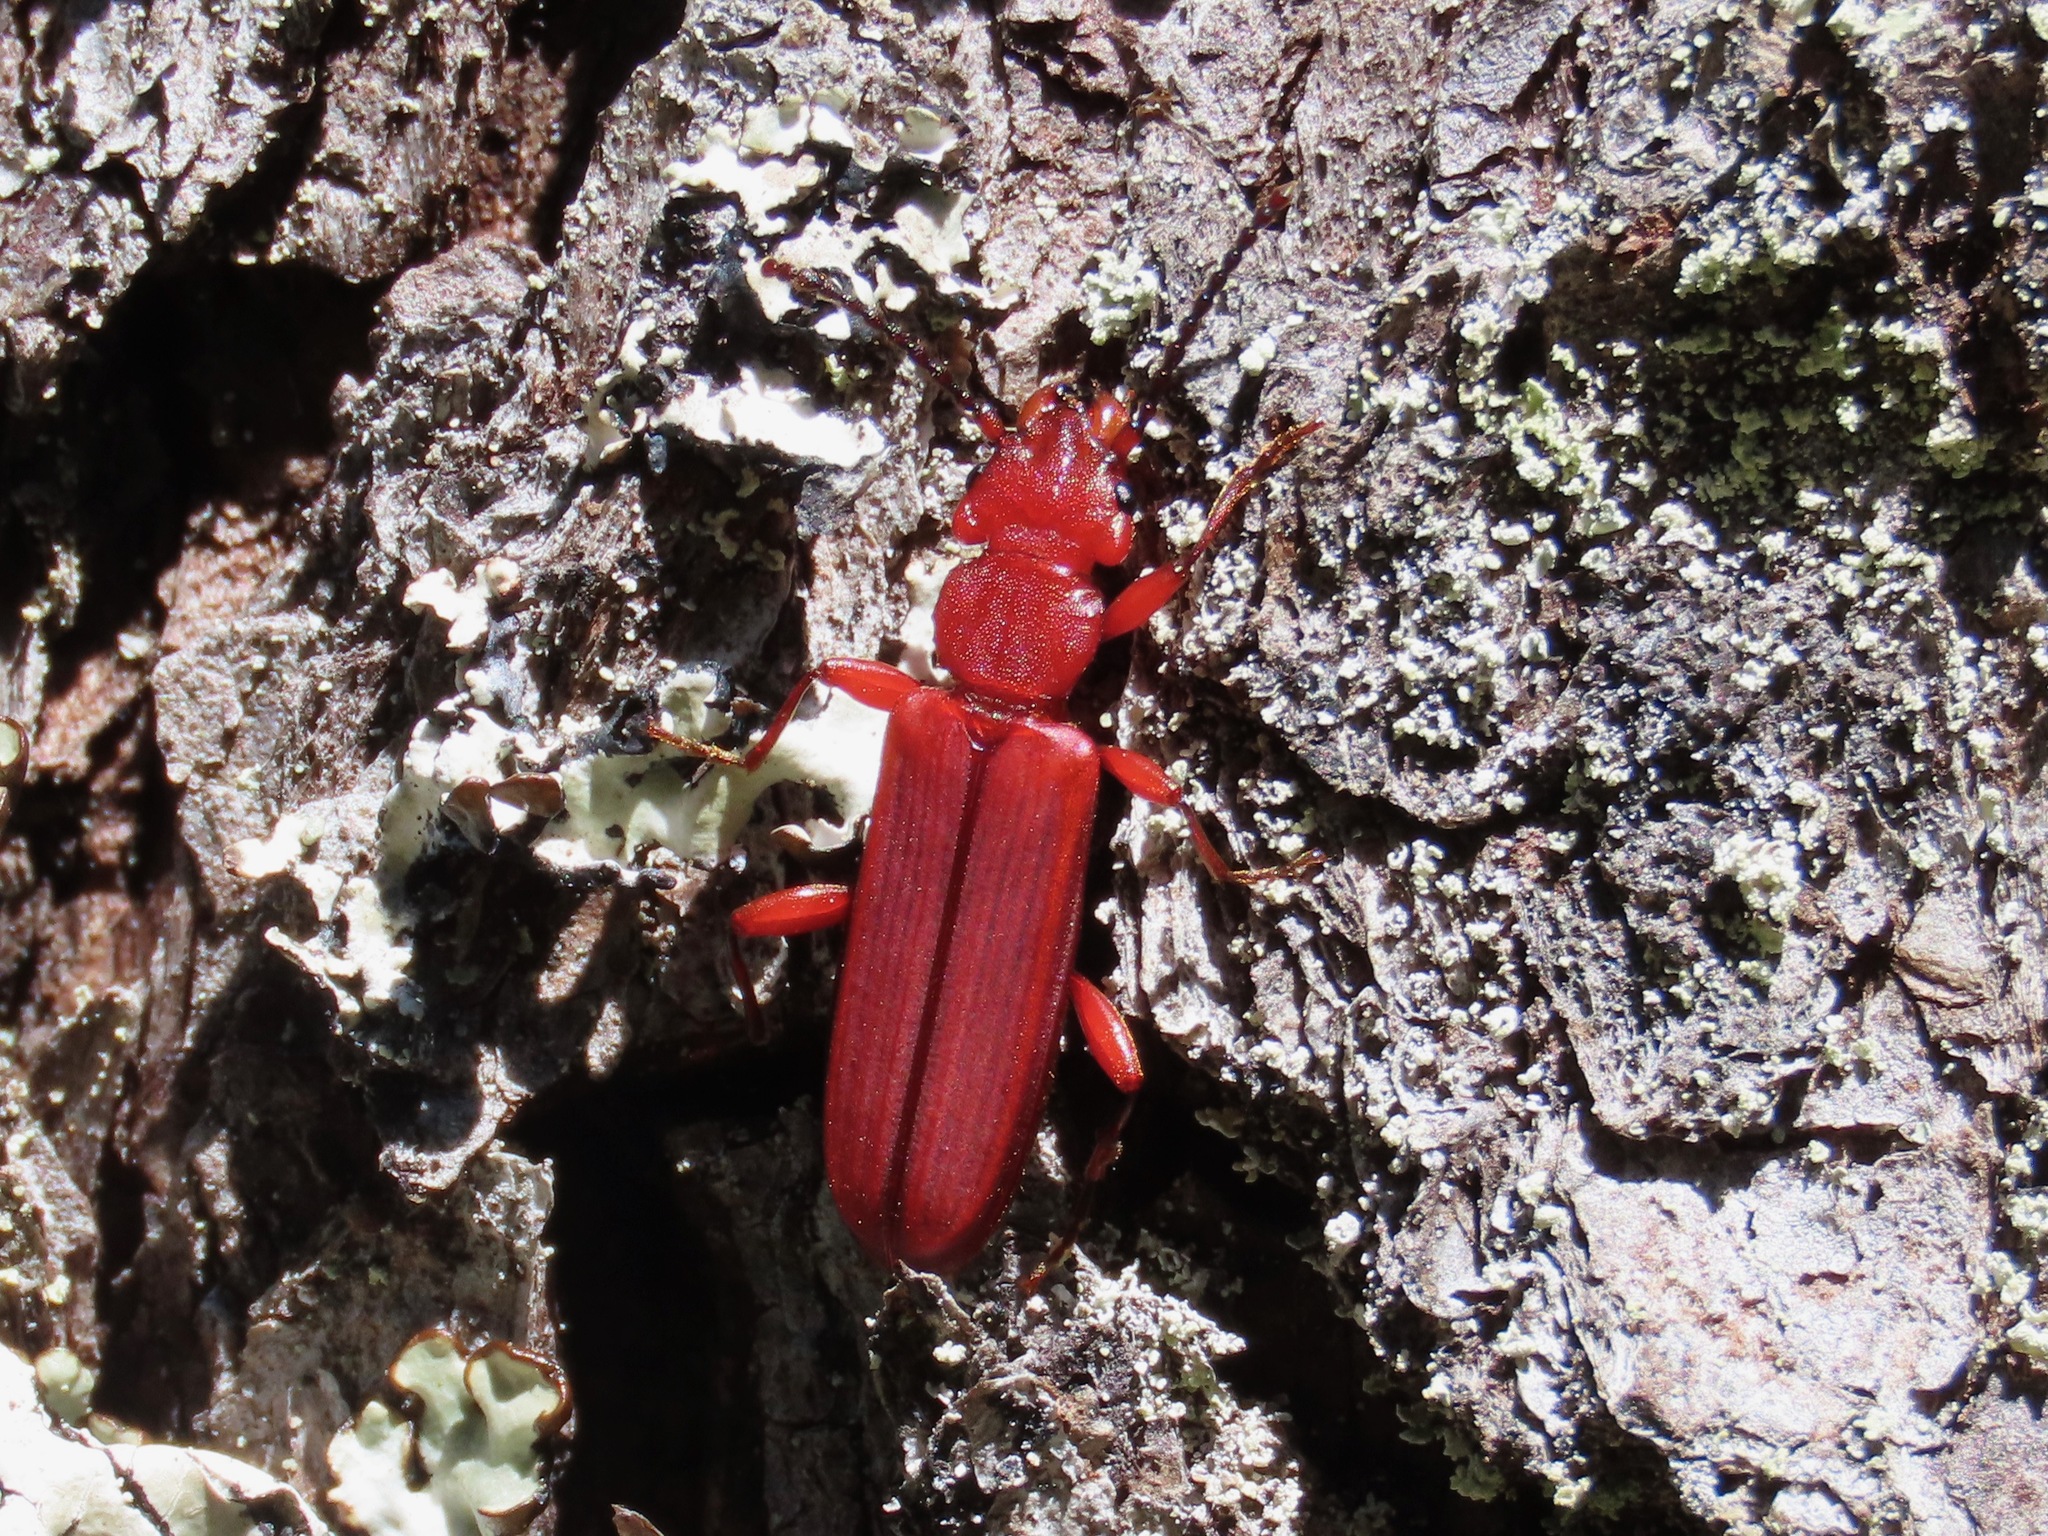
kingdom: Animalia
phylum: Arthropoda
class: Insecta
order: Coleoptera
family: Cucujidae
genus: Cucujus
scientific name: Cucujus clavipes
